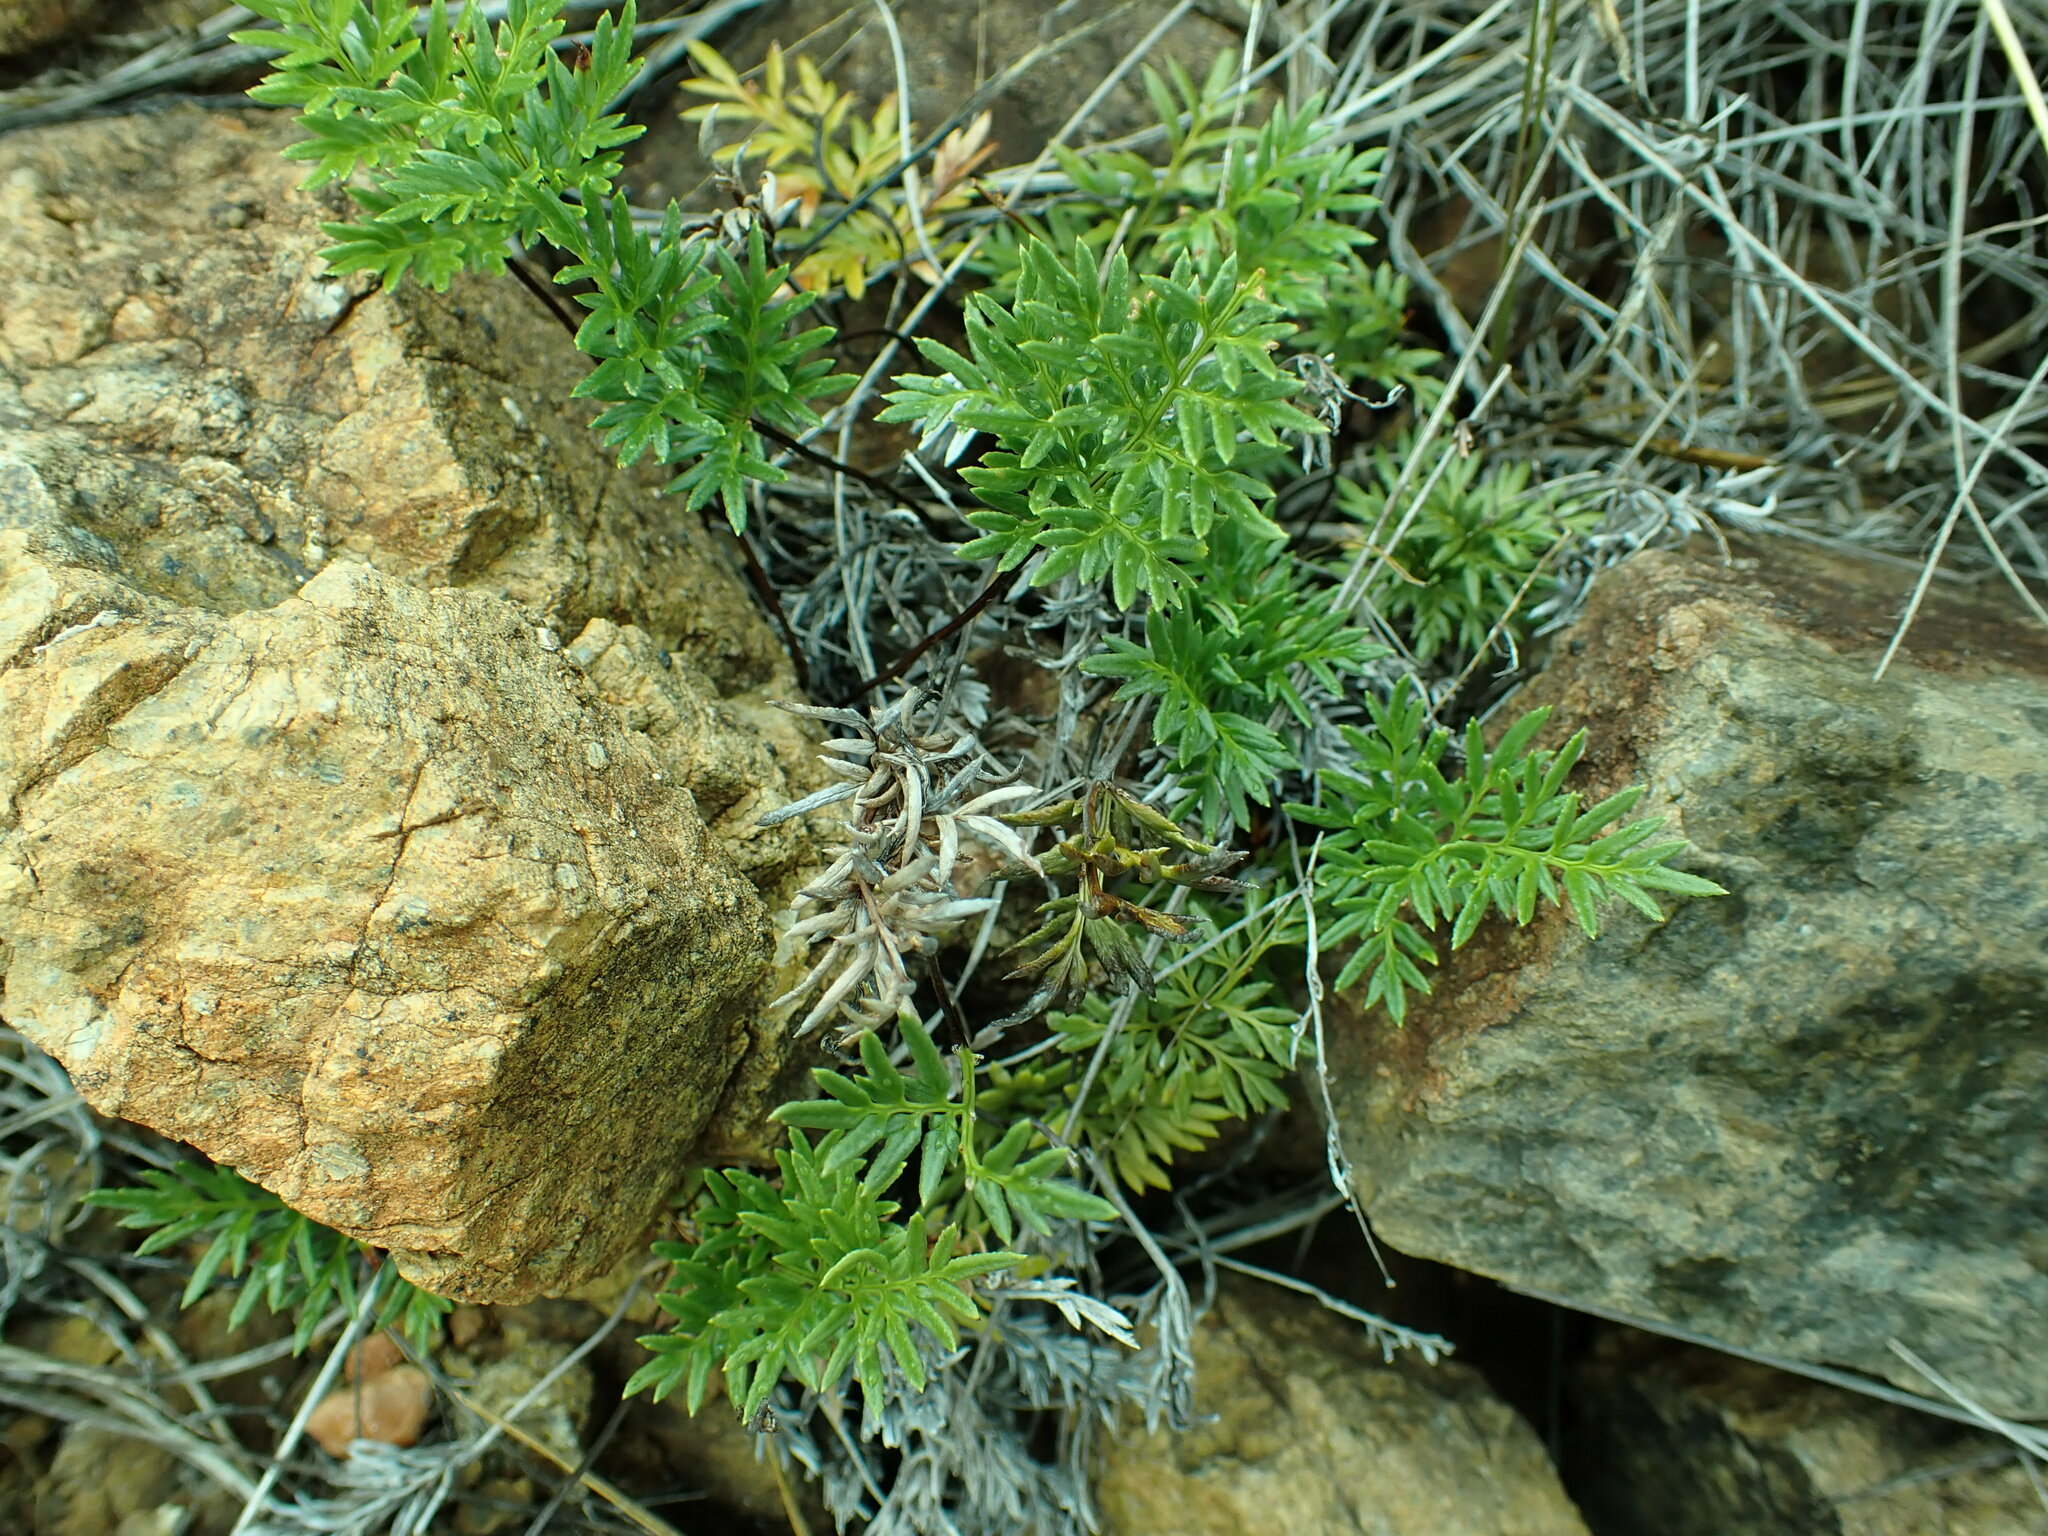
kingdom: Plantae
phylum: Tracheophyta
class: Polypodiopsida
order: Polypodiales
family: Pteridaceae
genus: Aspidotis
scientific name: Aspidotis densa
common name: Indian's dream
